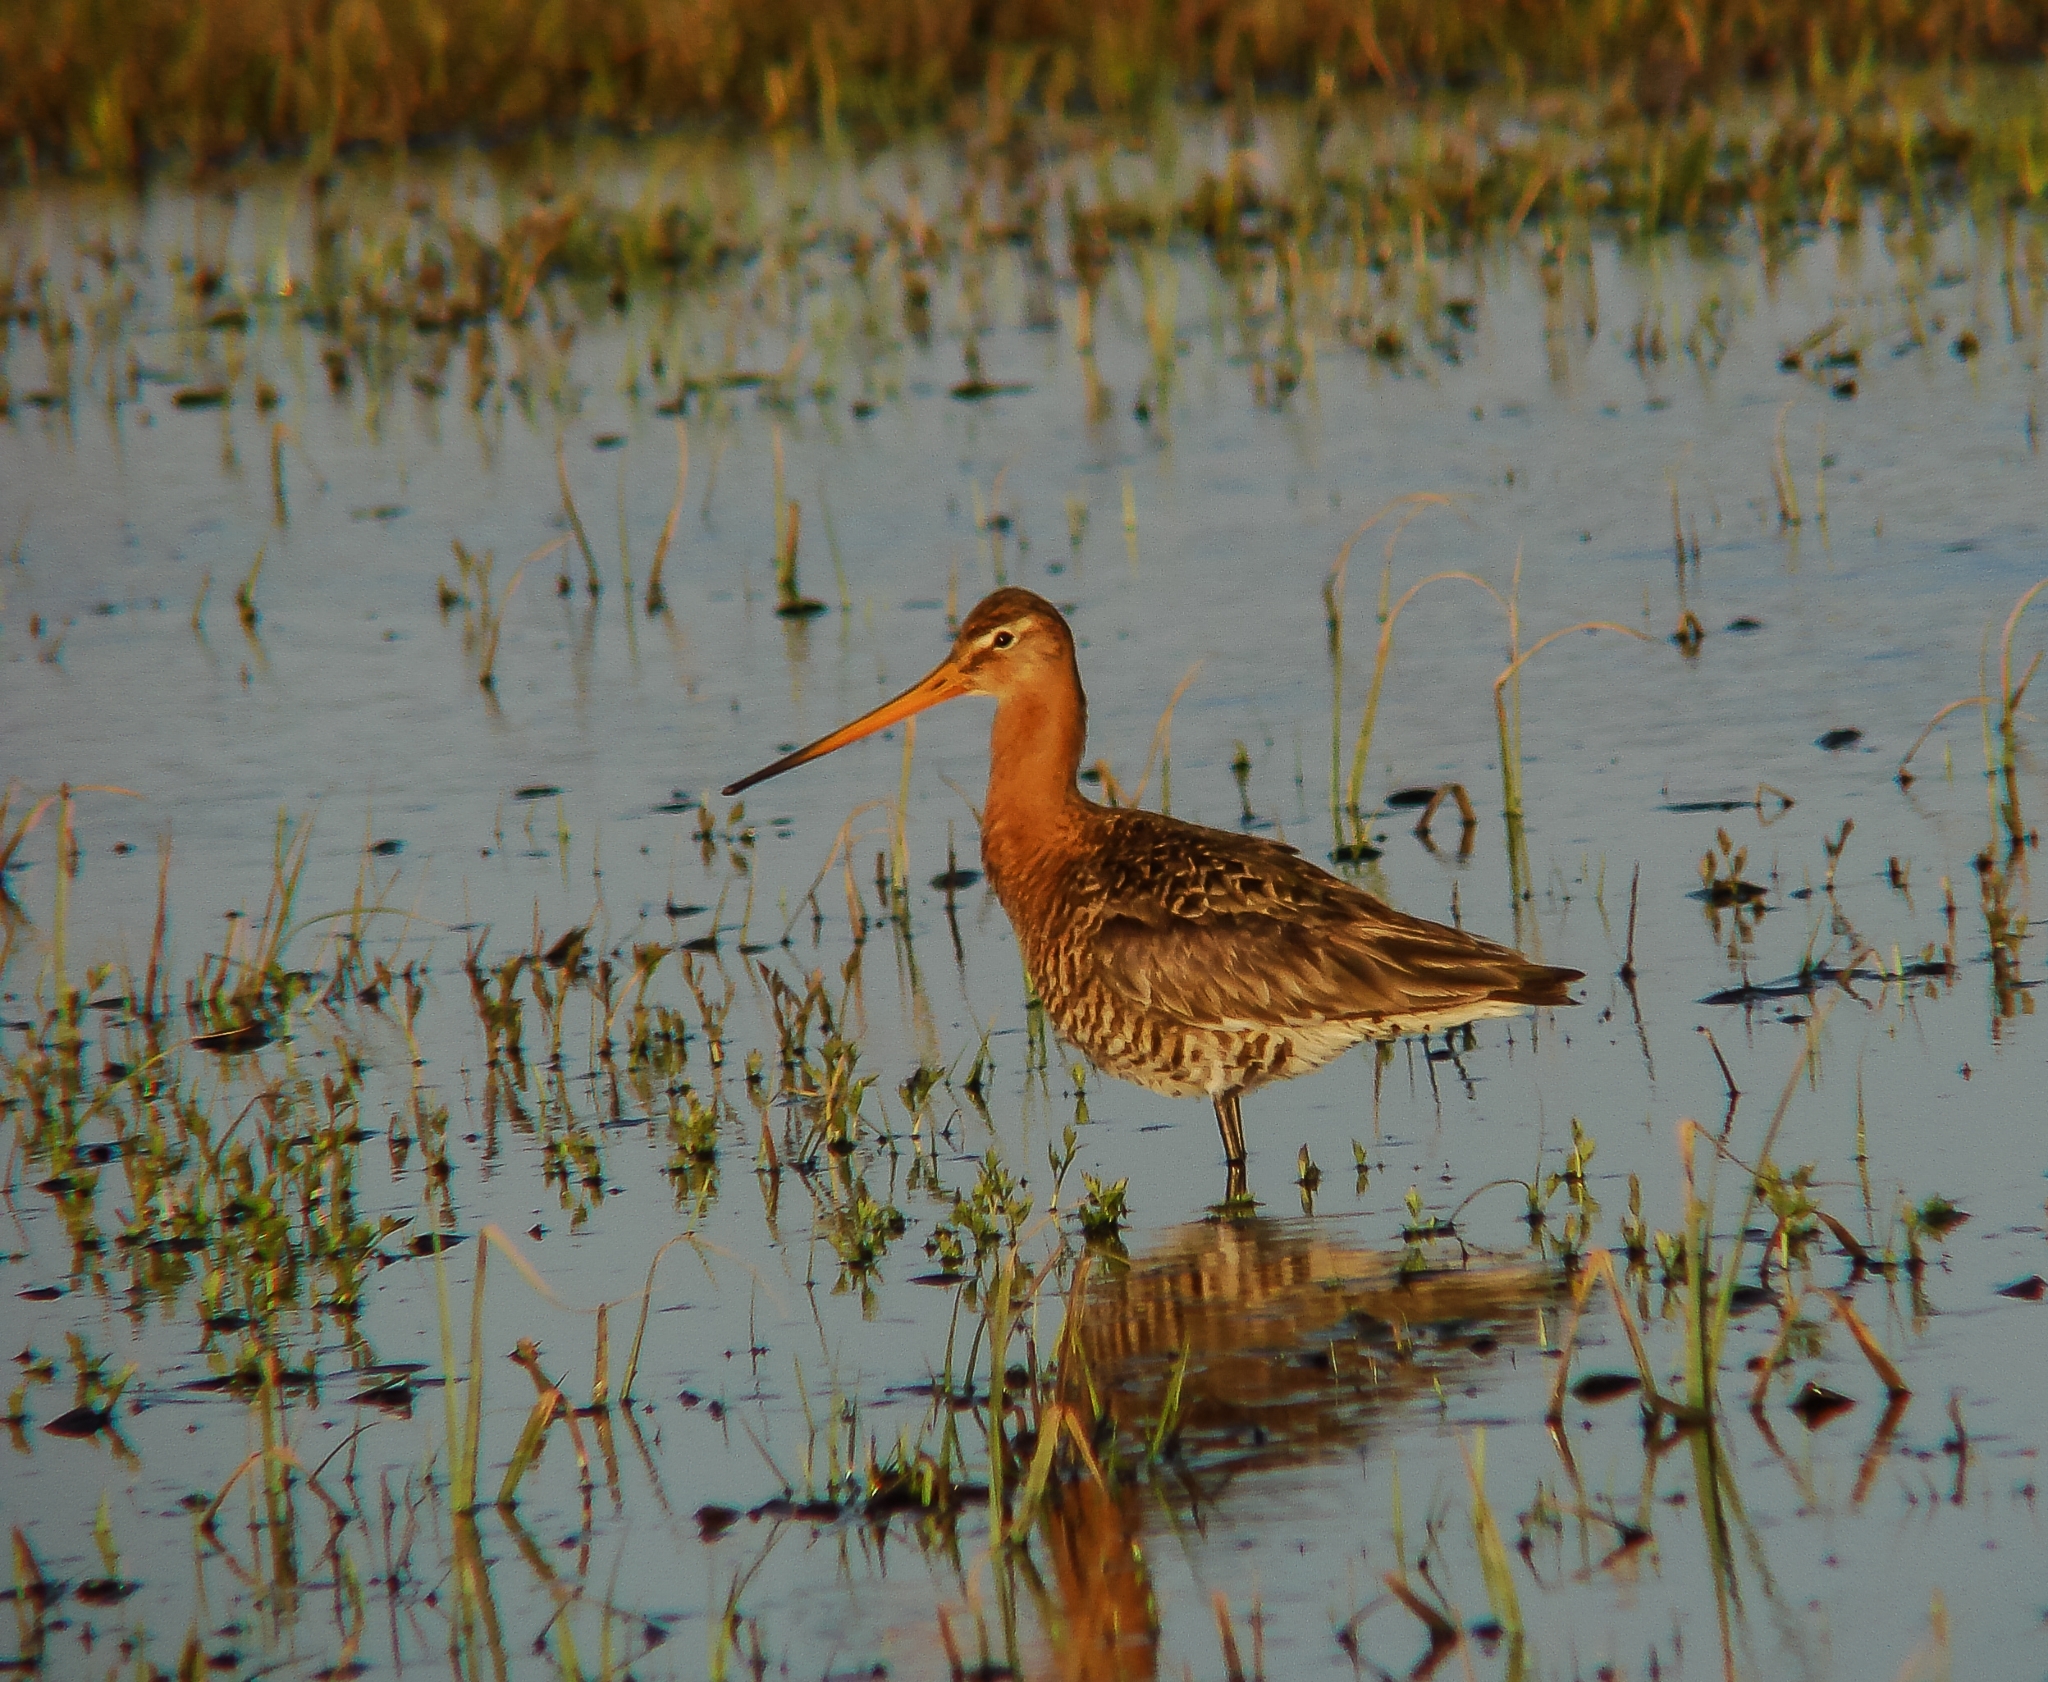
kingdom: Animalia
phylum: Chordata
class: Aves
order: Charadriiformes
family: Scolopacidae
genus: Limosa
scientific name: Limosa limosa
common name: Black-tailed godwit
